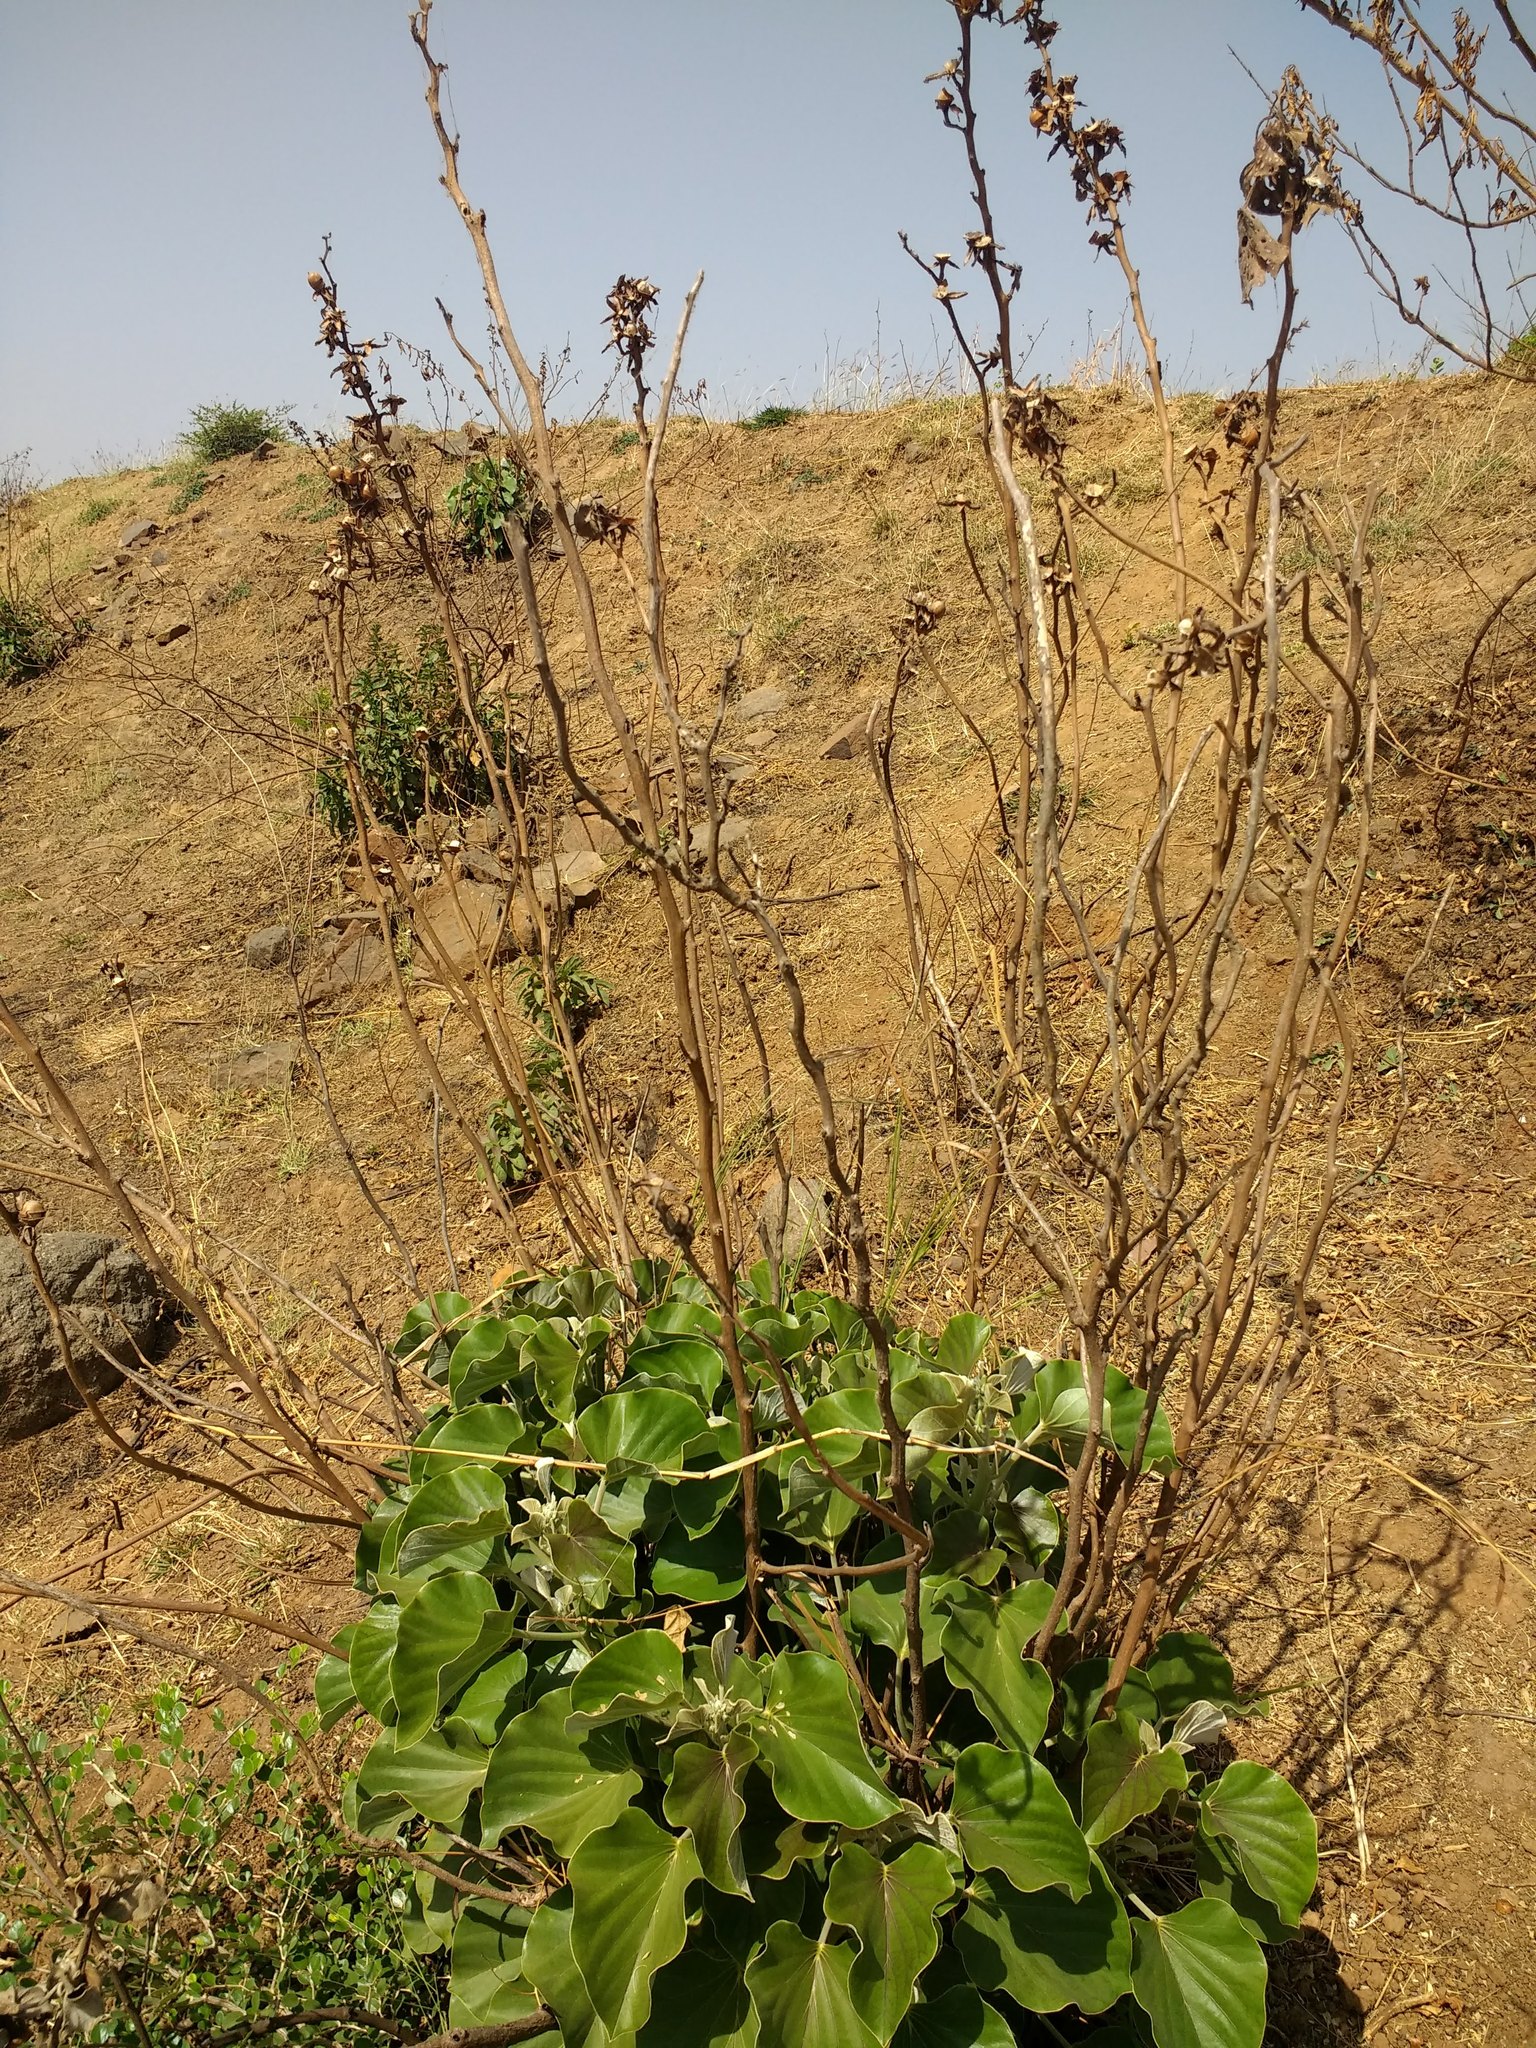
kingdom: Plantae
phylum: Tracheophyta
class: Magnoliopsida
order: Solanales
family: Convolvulaceae
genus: Rivea
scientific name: Rivea ornata
